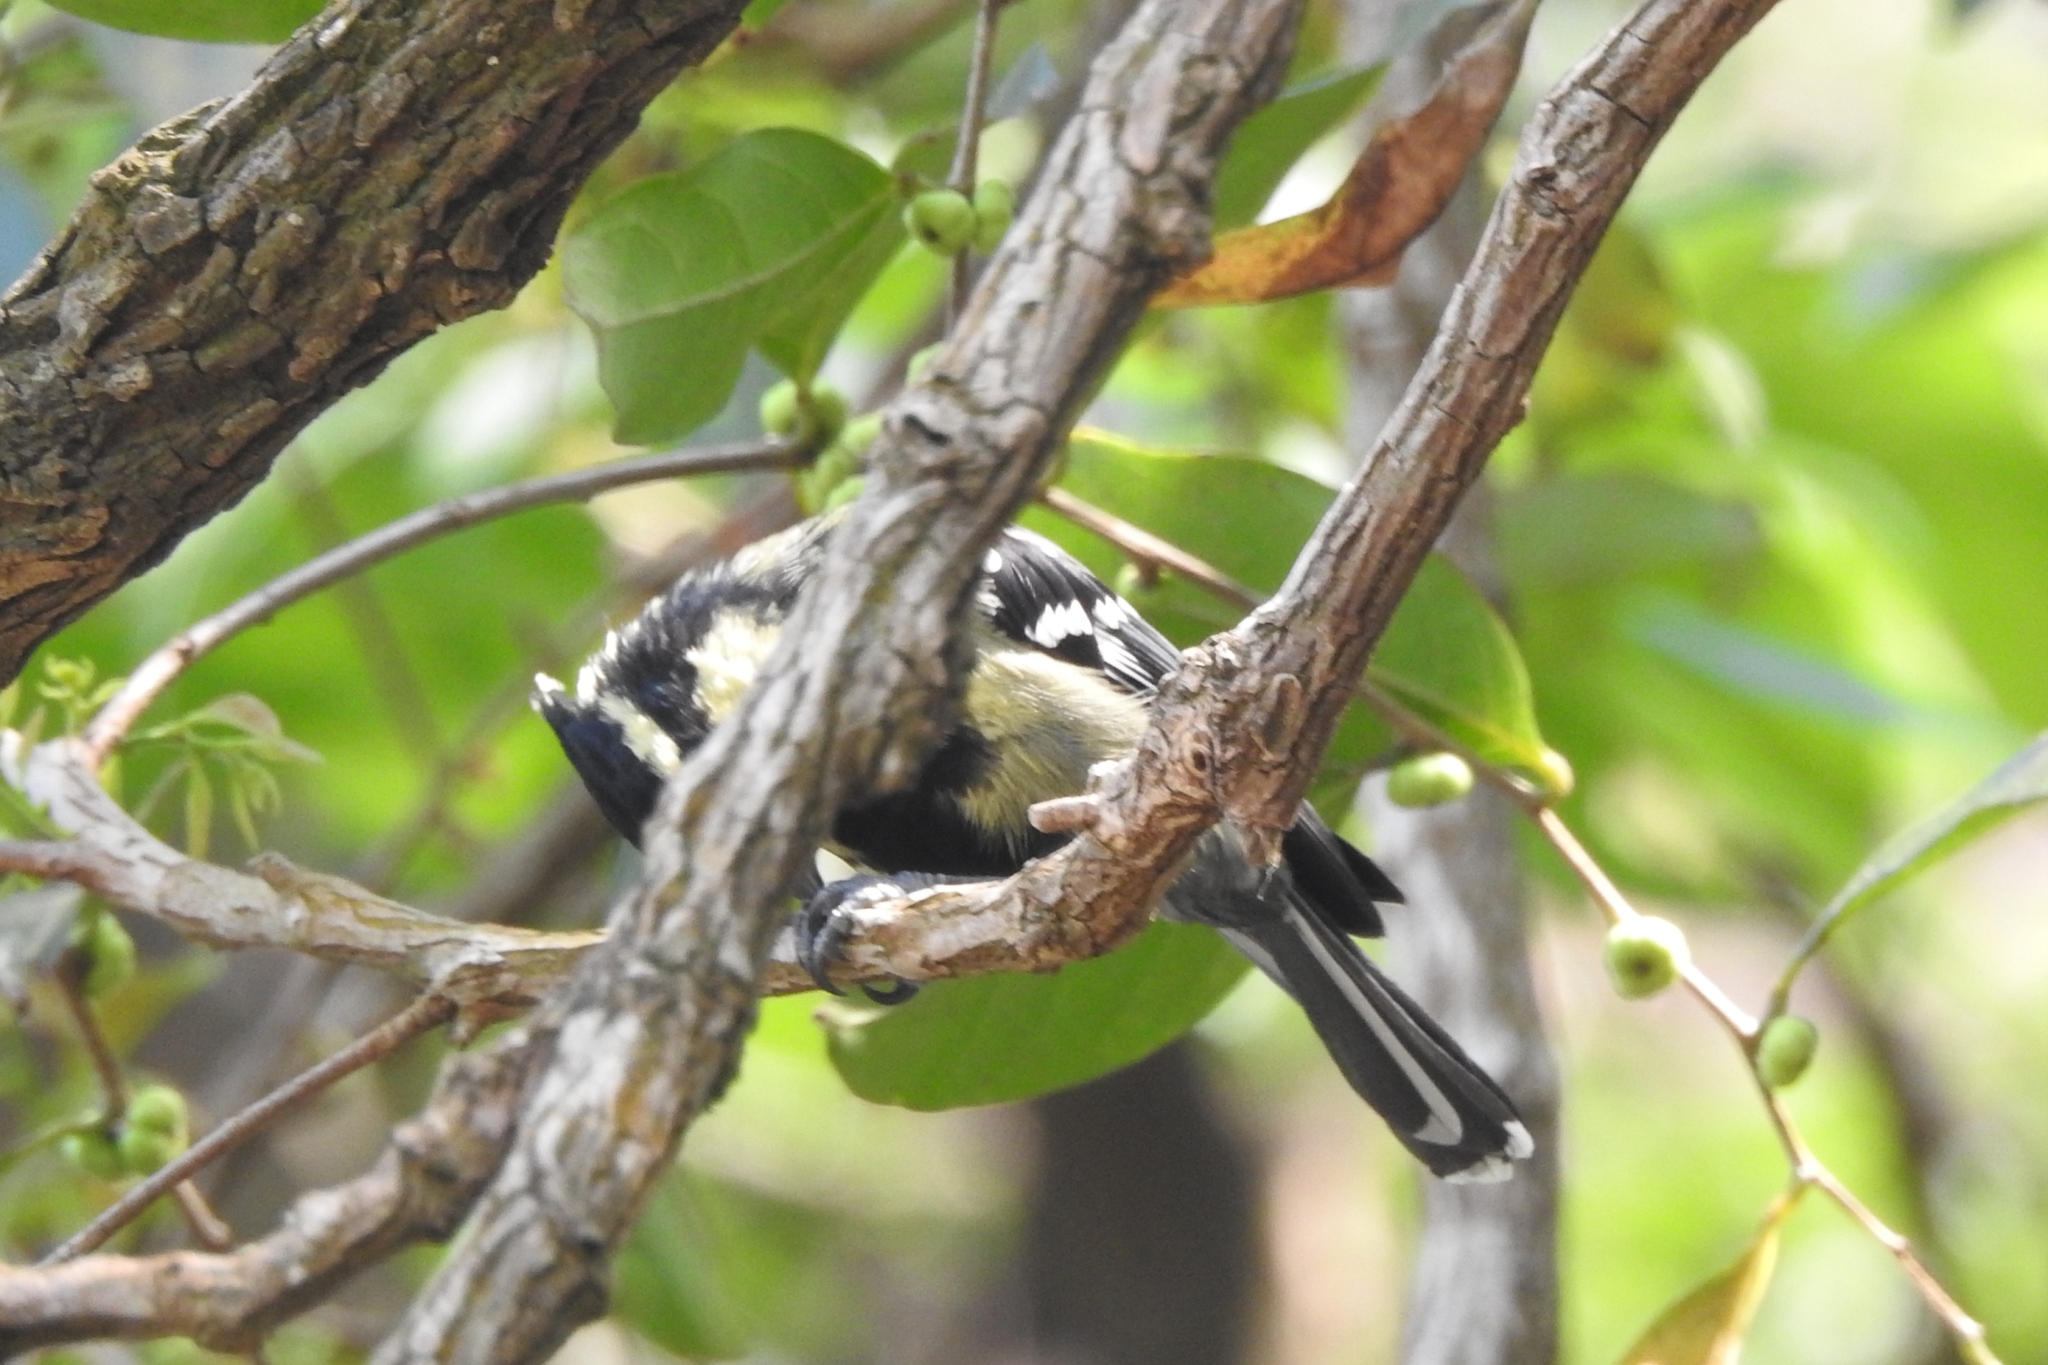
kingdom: Animalia
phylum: Chordata
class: Aves
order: Passeriformes
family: Paridae
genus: Parus
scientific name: Parus aplonotus
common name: Indian black-lored tit
